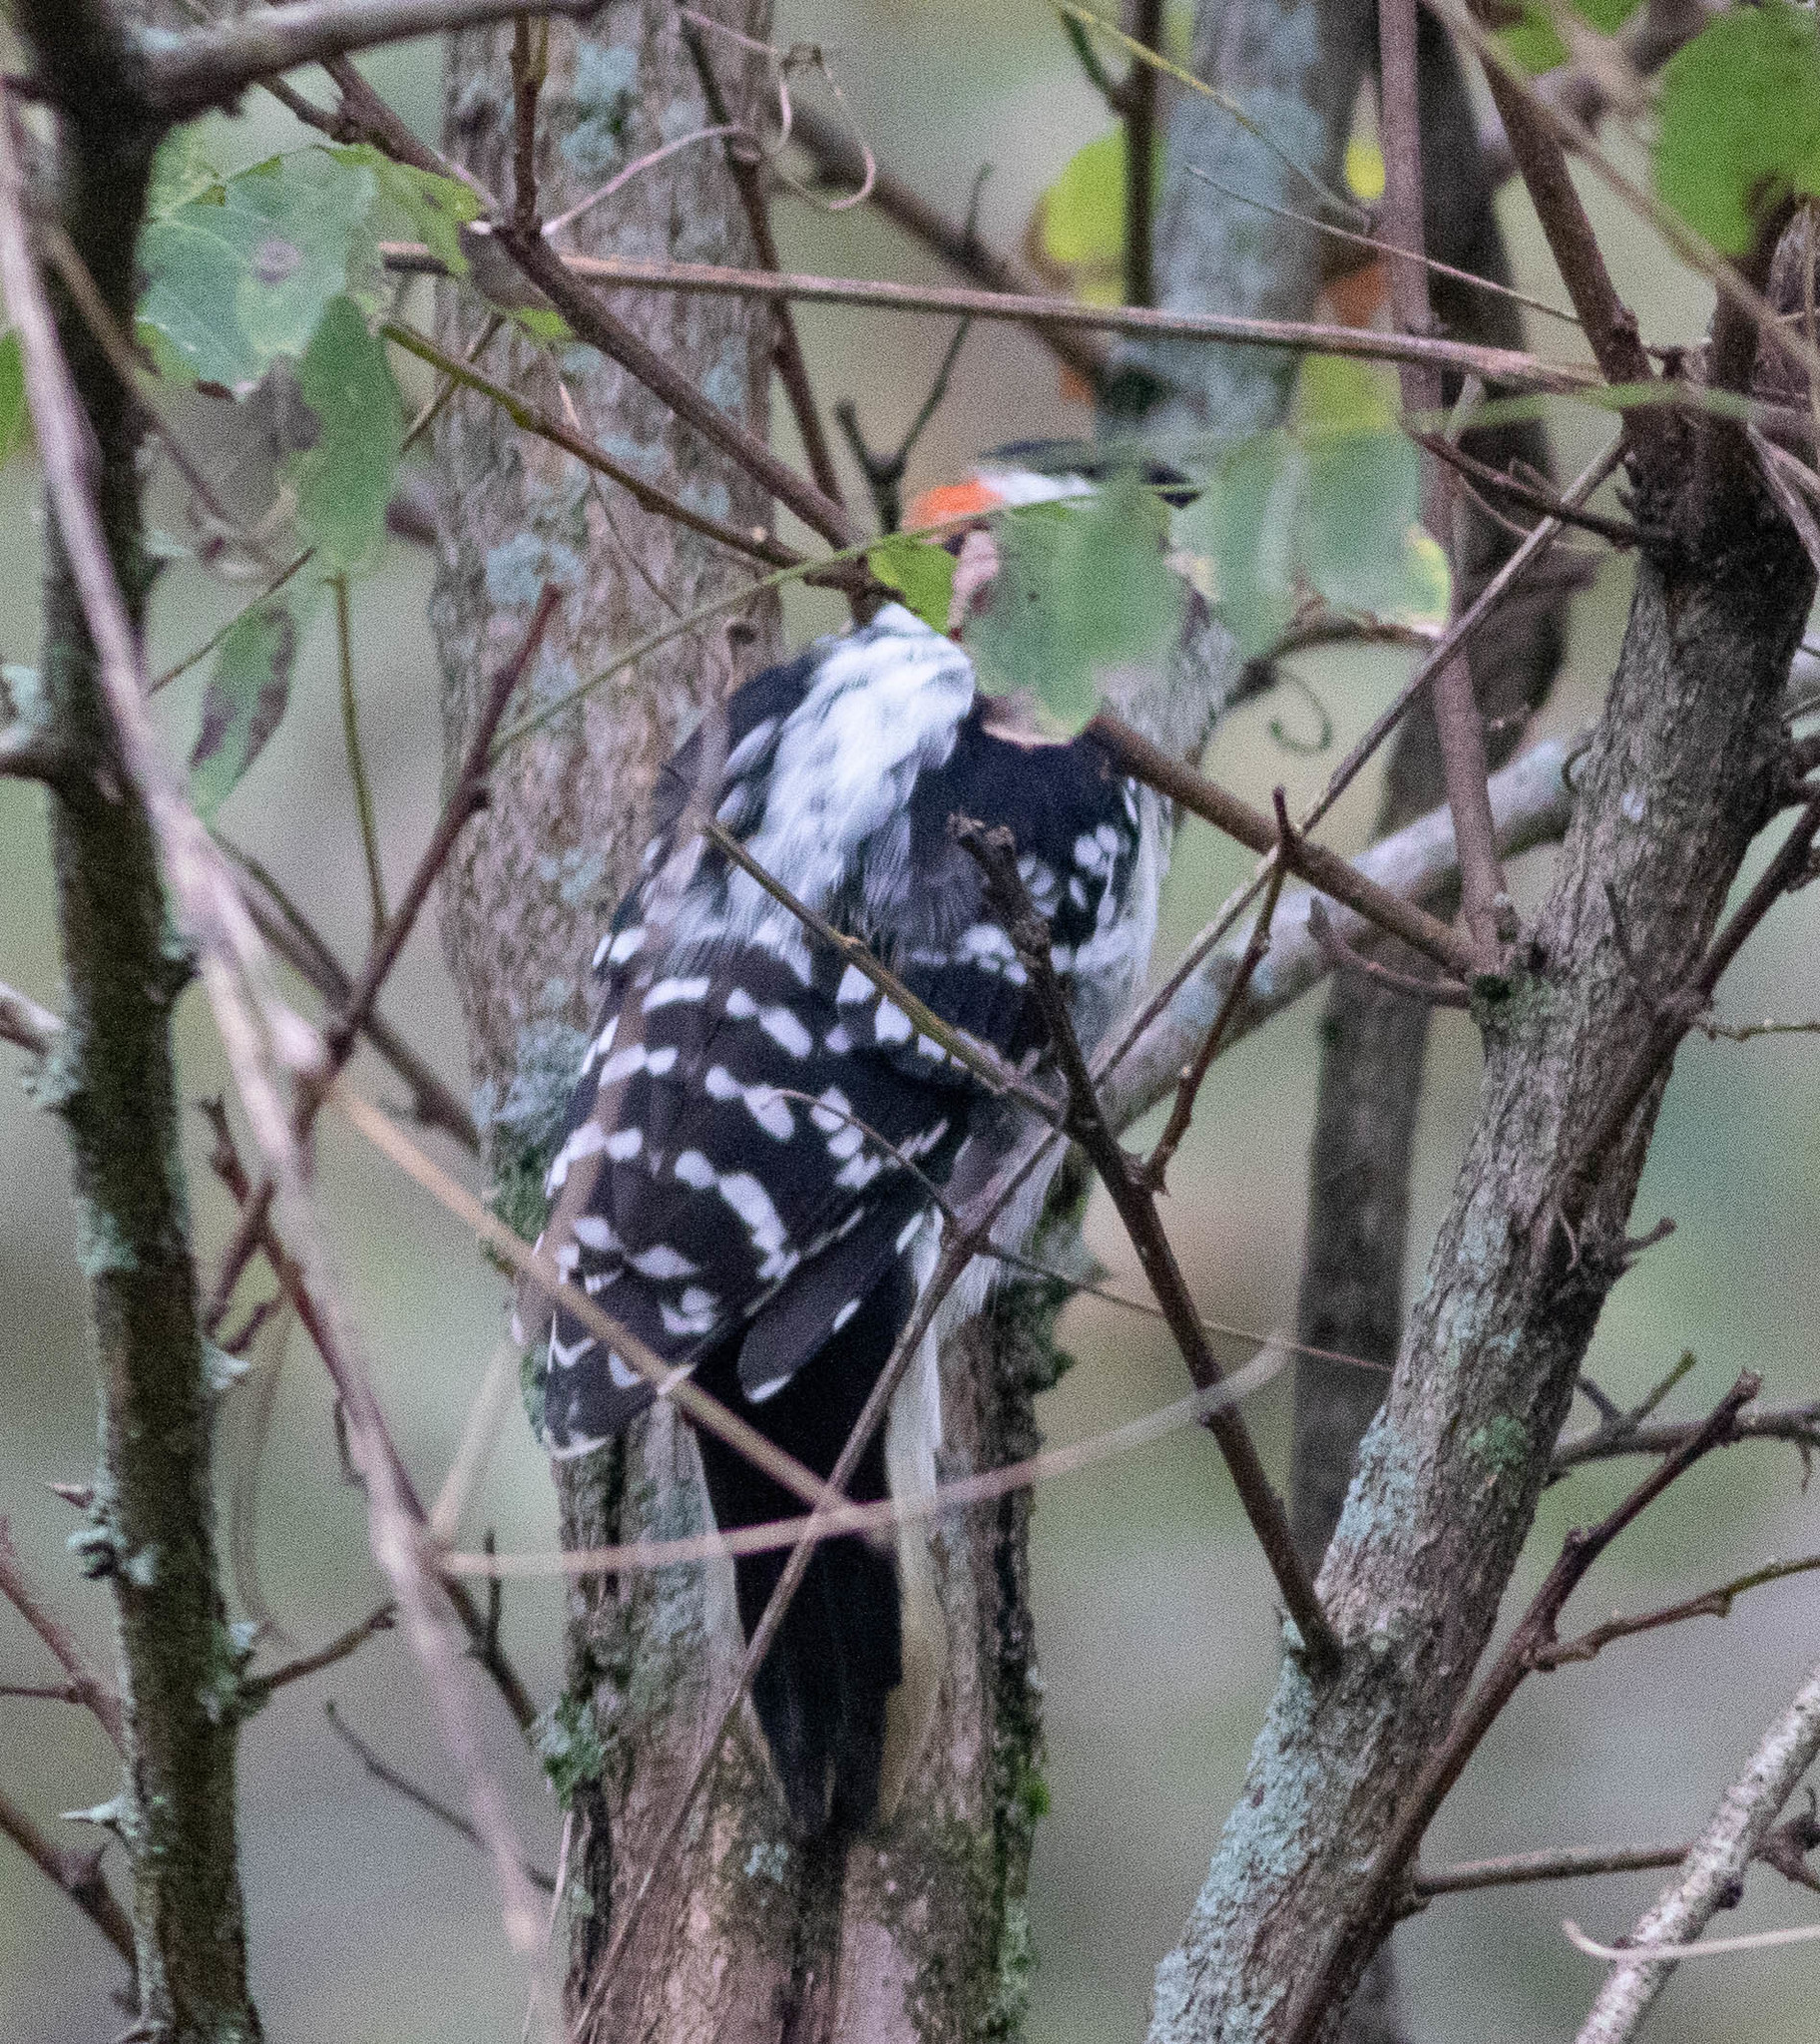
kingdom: Animalia
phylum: Chordata
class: Aves
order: Piciformes
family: Picidae
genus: Leuconotopicus
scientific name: Leuconotopicus villosus
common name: Hairy woodpecker
